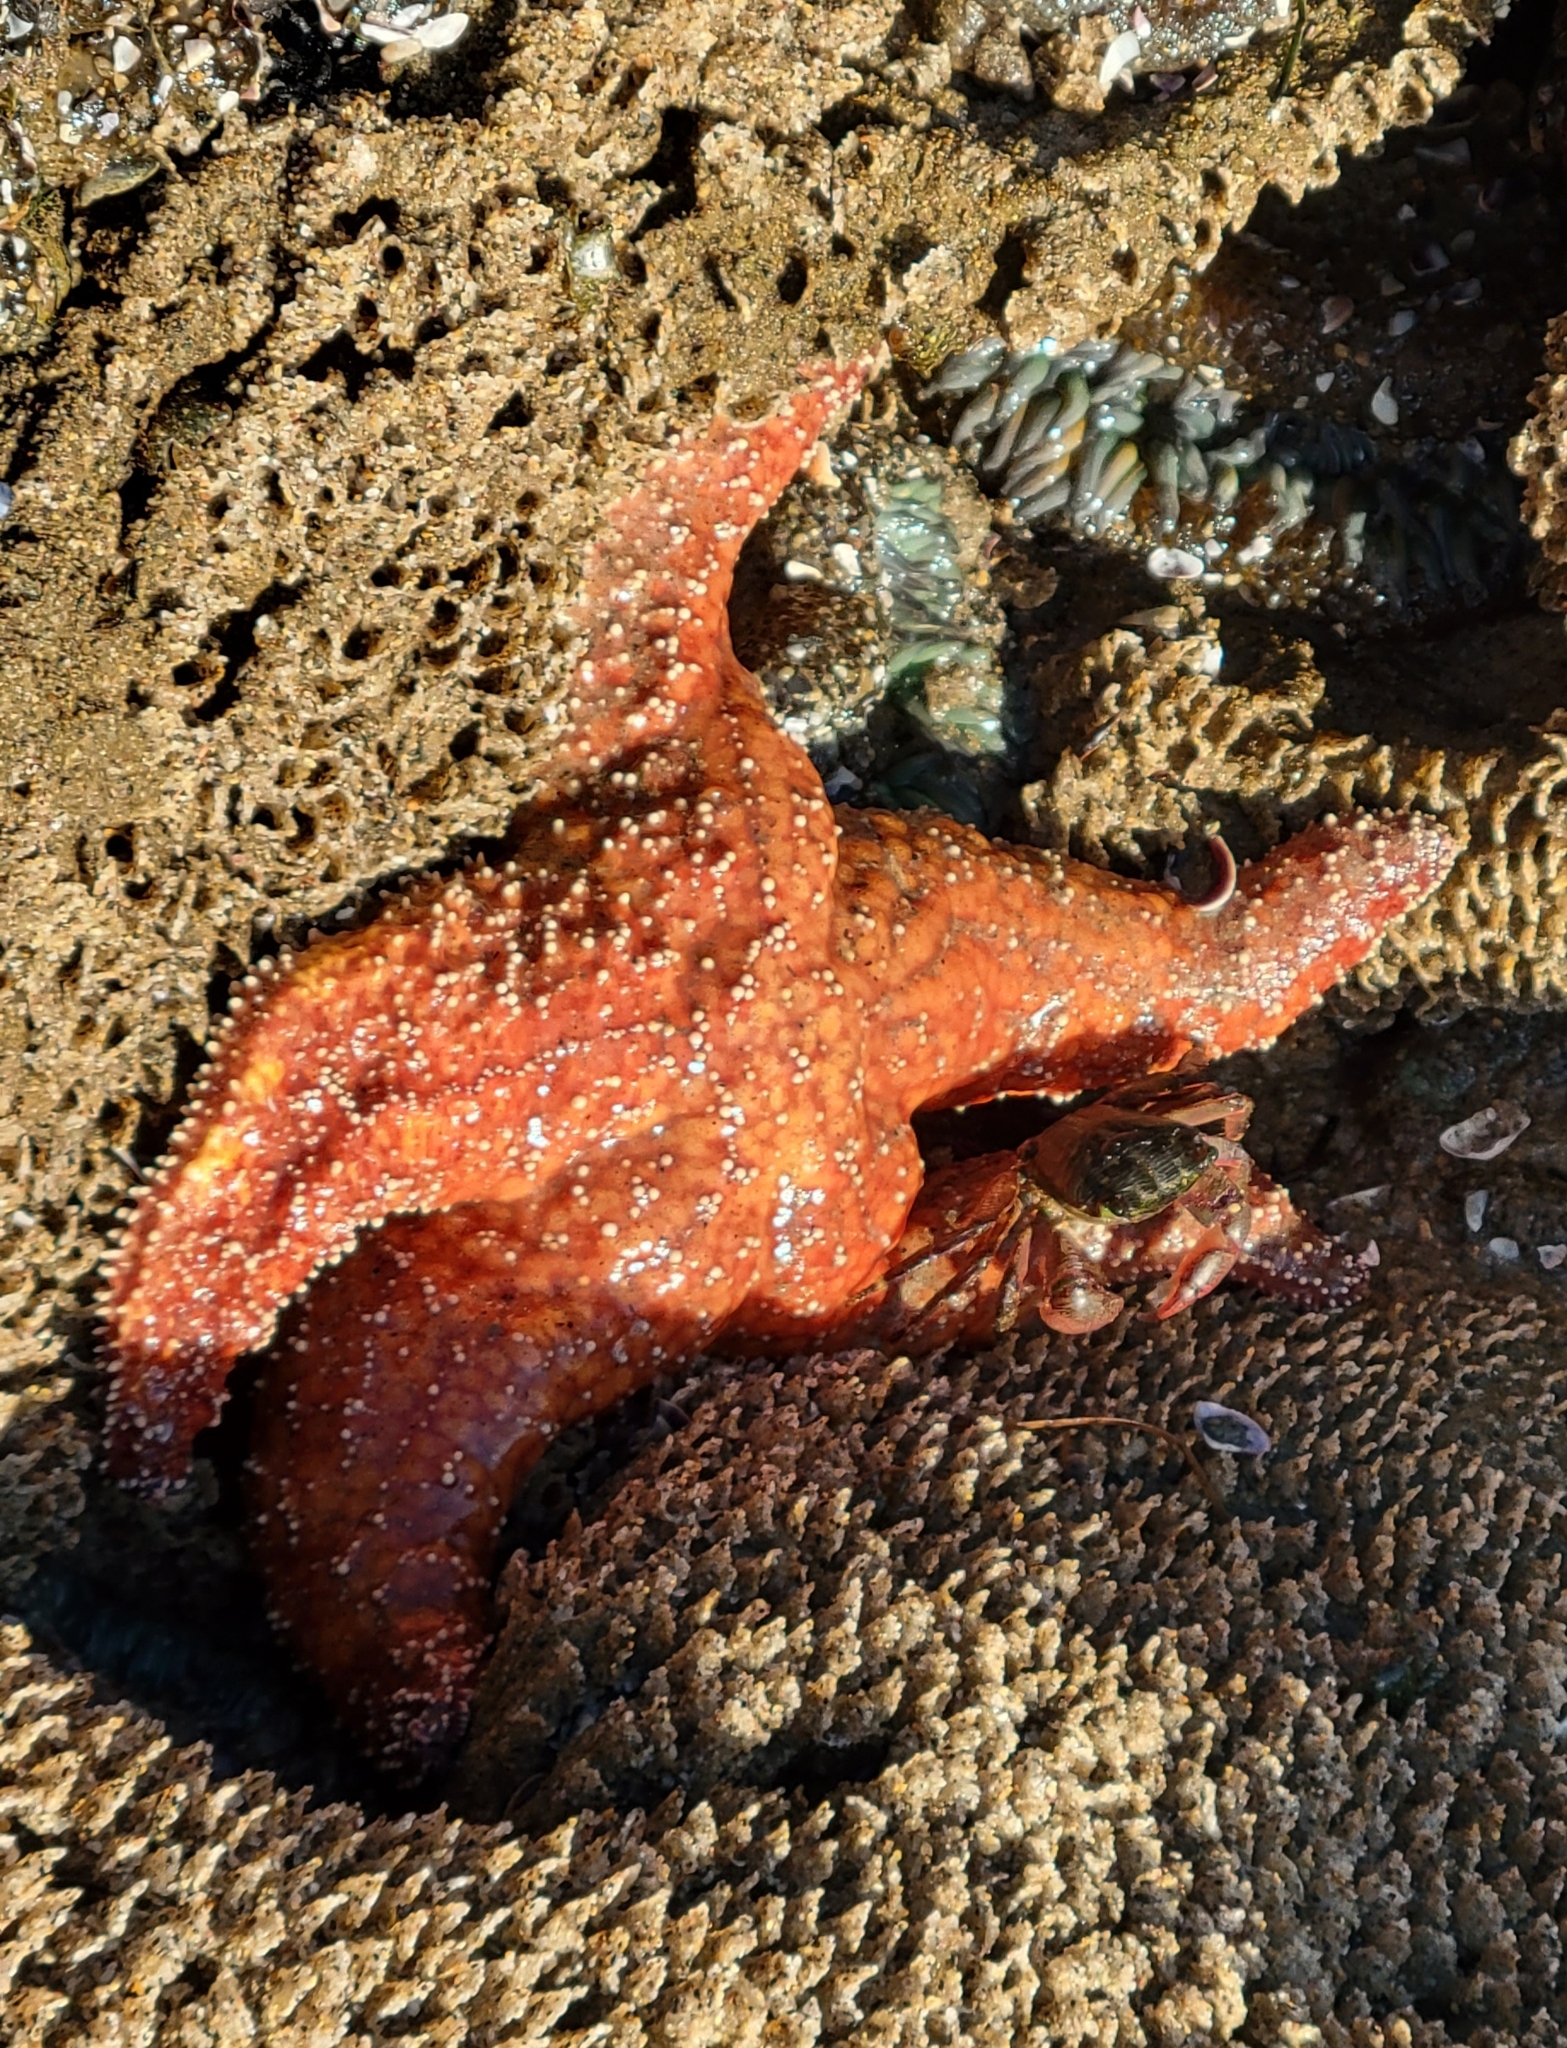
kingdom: Animalia
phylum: Echinodermata
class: Asteroidea
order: Forcipulatida
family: Asteriidae
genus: Pisaster
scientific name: Pisaster ochraceus
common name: Ochre stars
